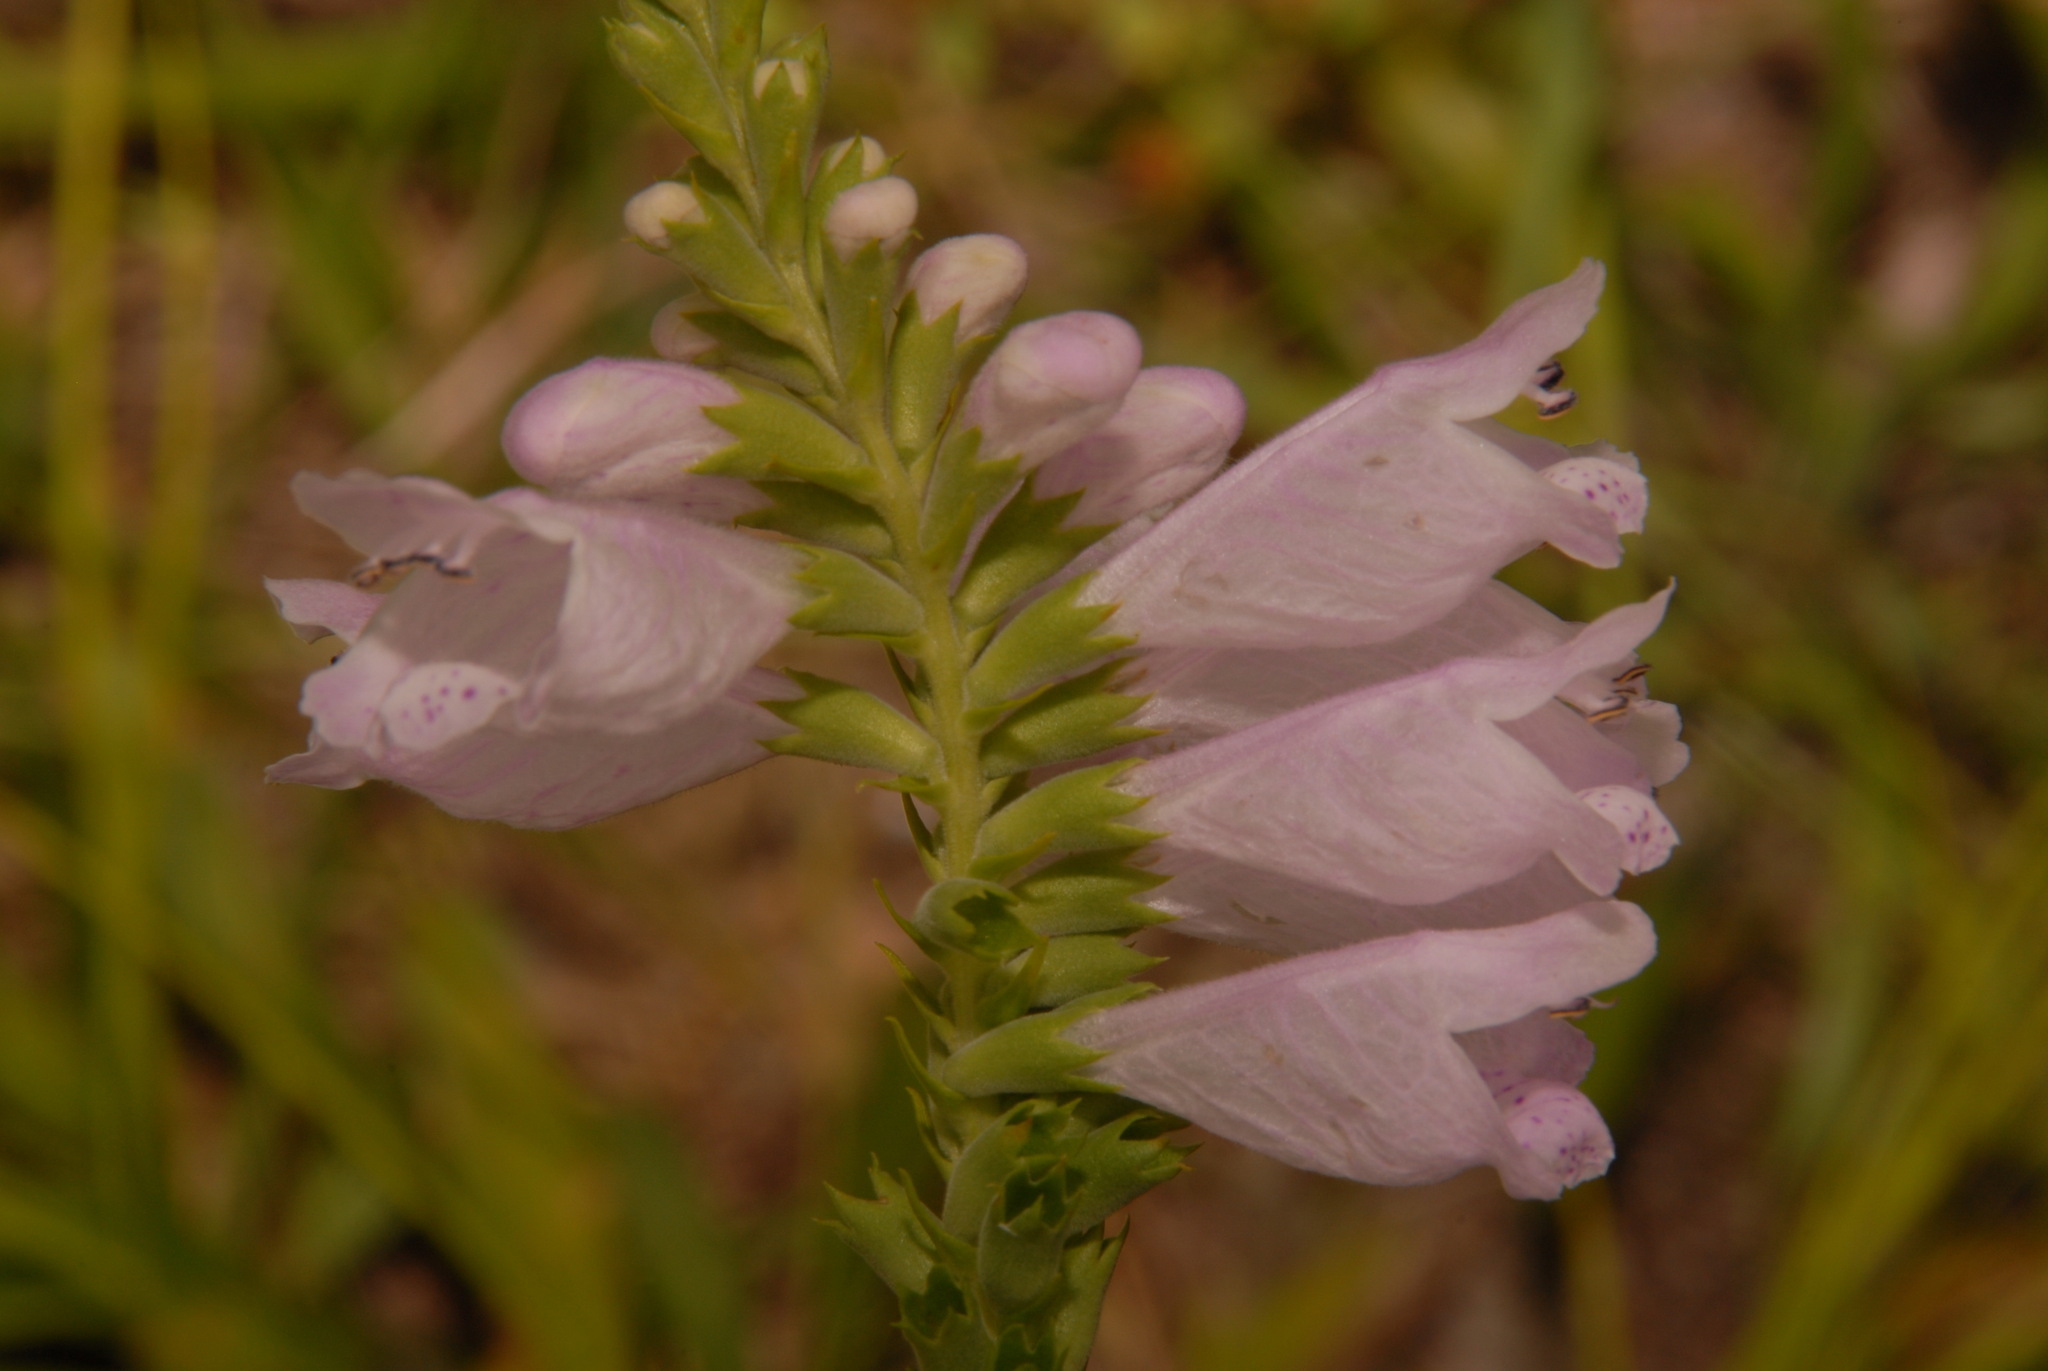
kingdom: Plantae
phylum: Tracheophyta
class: Magnoliopsida
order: Lamiales
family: Lamiaceae
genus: Physostegia
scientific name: Physostegia angustifolia
